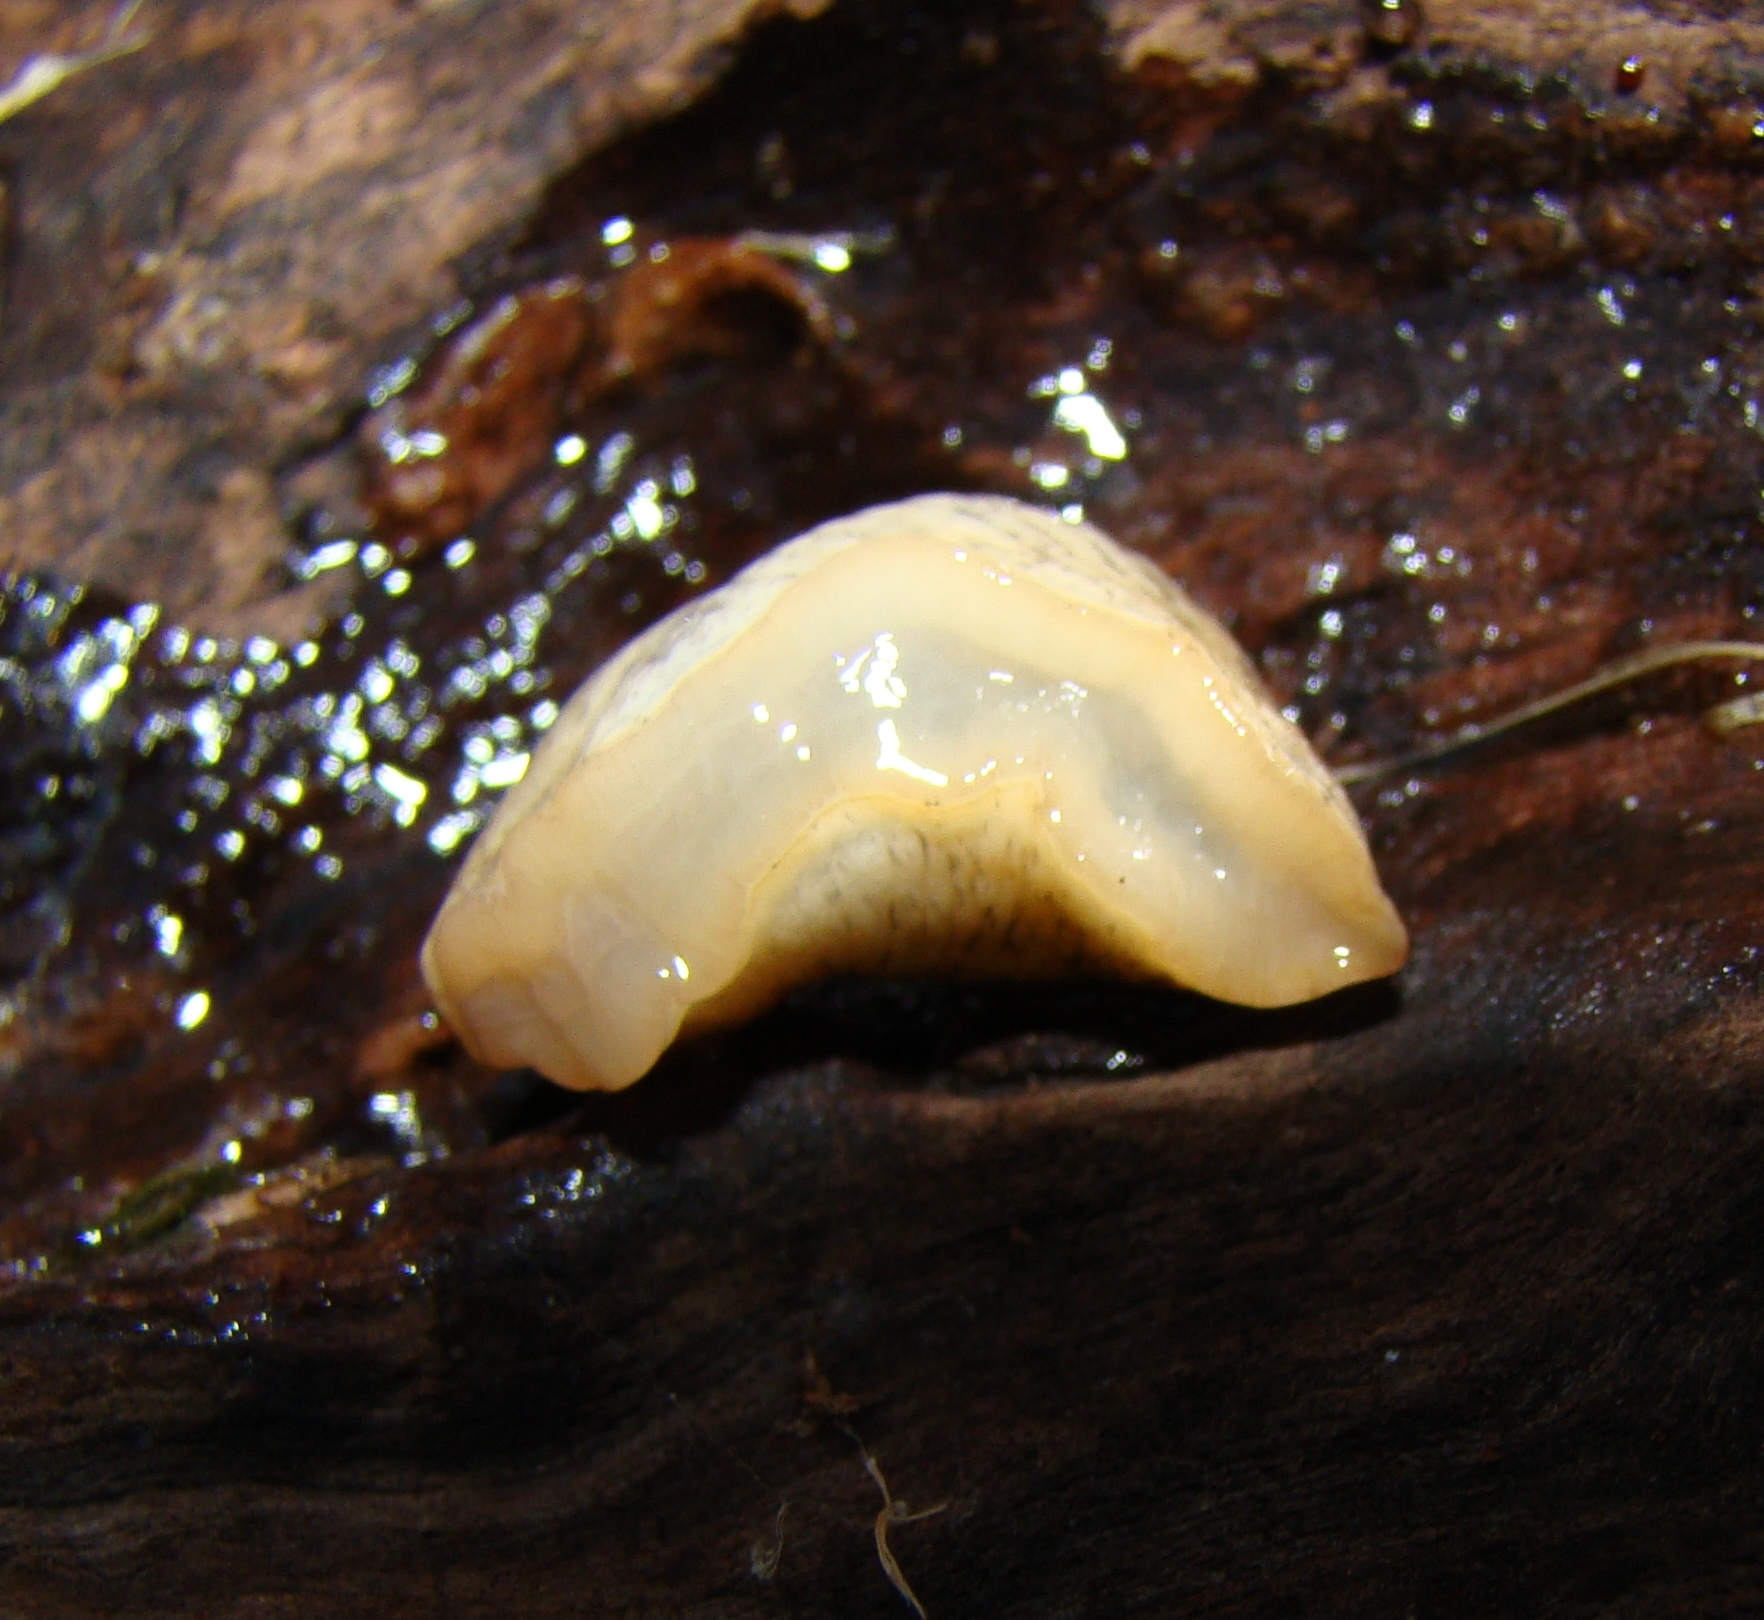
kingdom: Animalia
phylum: Mollusca
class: Gastropoda
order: Stylommatophora
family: Agriolimacidae
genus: Deroceras
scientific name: Deroceras reticulatum
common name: Gray field slug
